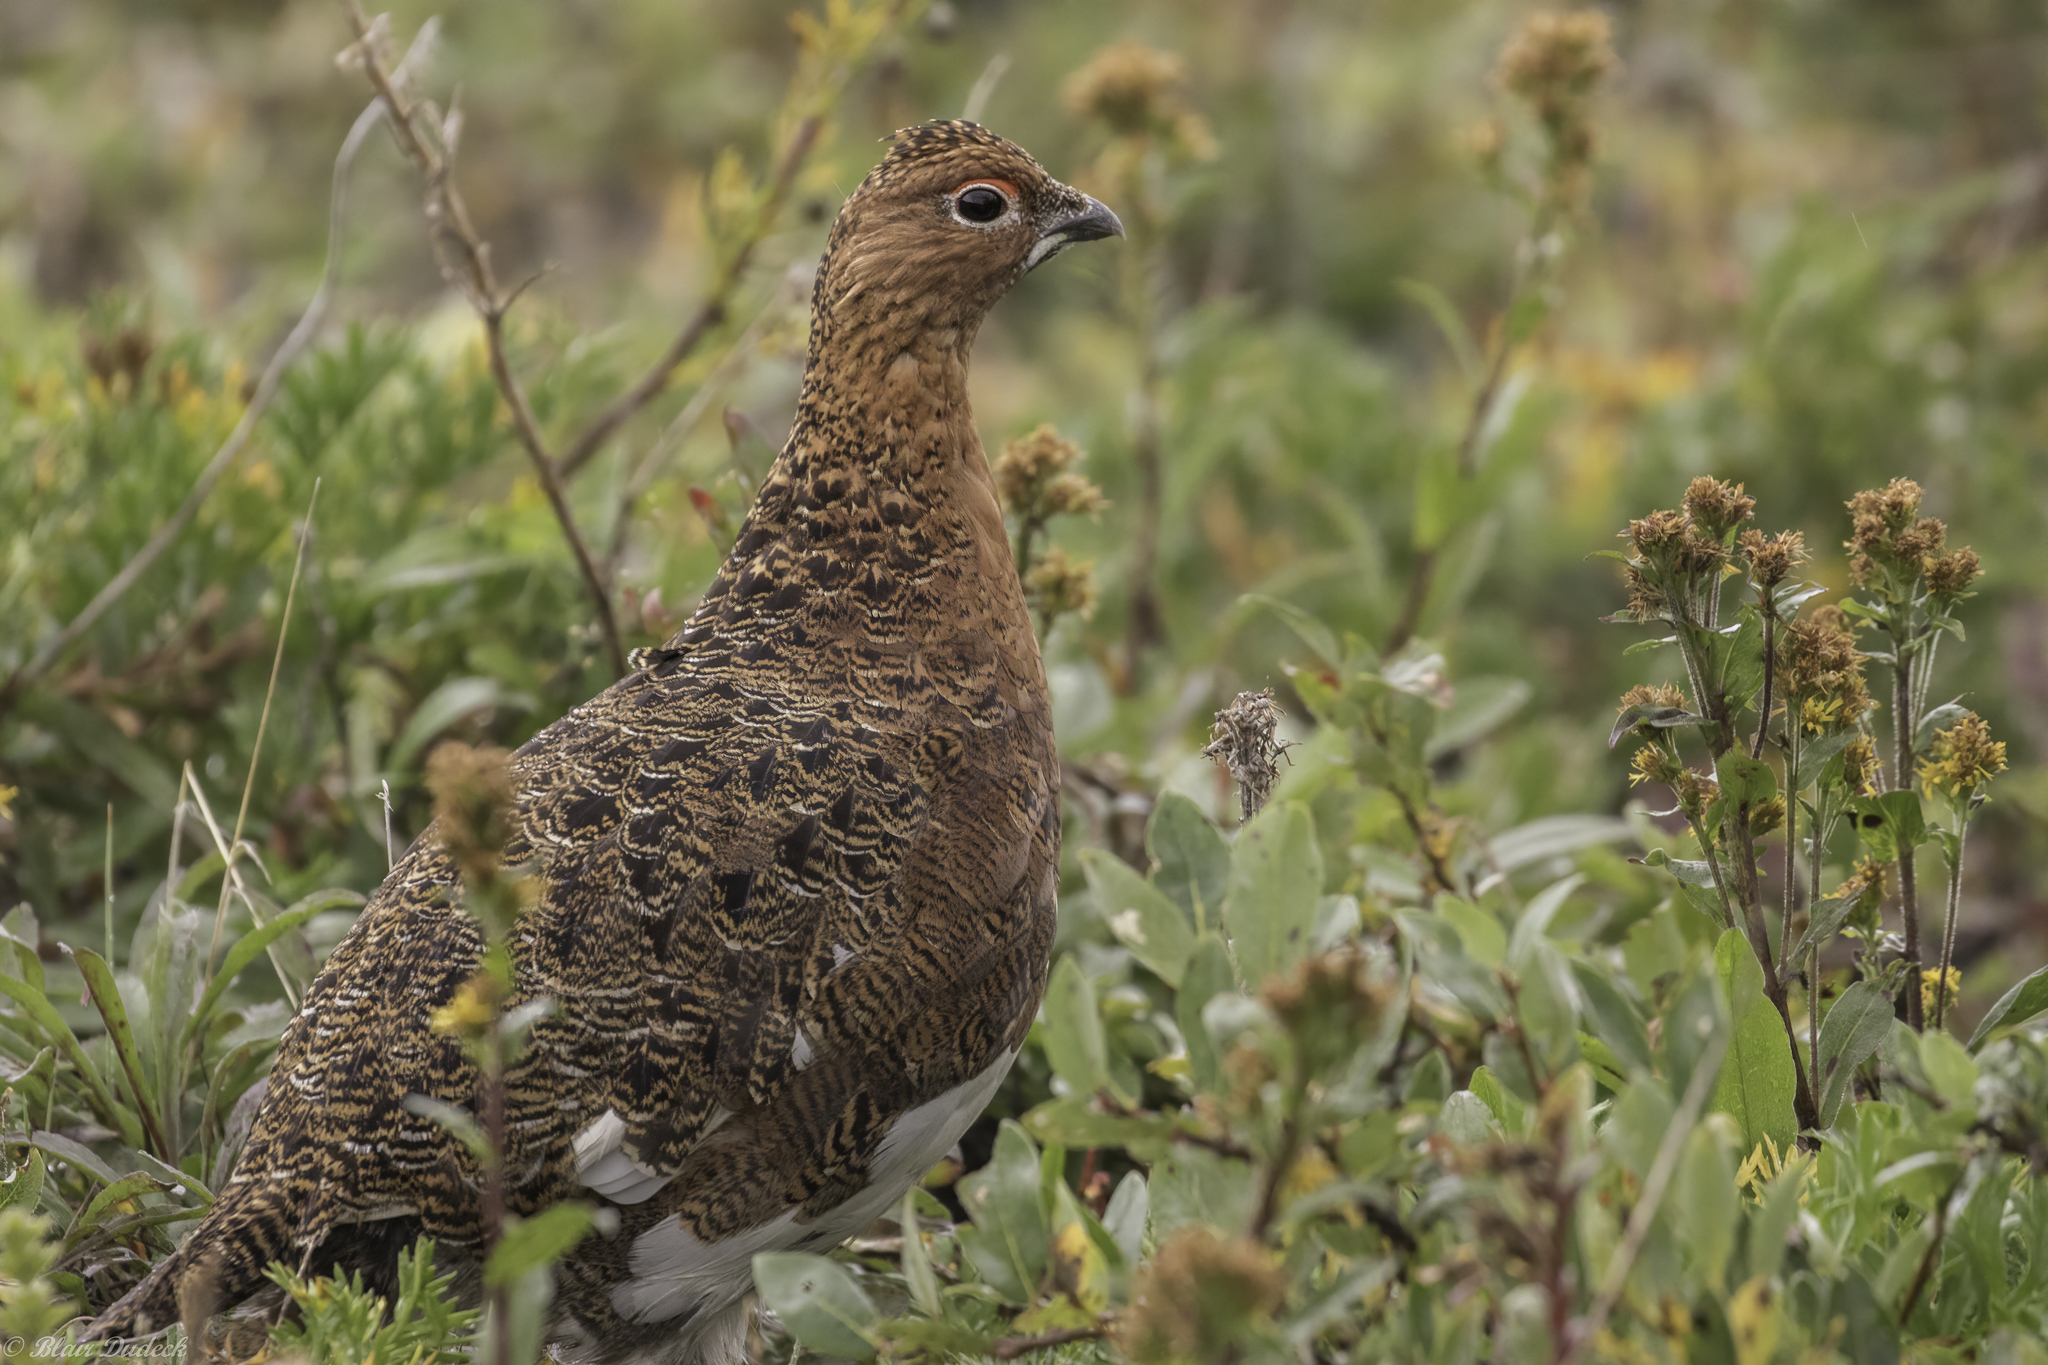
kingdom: Animalia
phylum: Chordata
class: Aves
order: Galliformes
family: Phasianidae
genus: Lagopus
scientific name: Lagopus lagopus
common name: Willow ptarmigan
